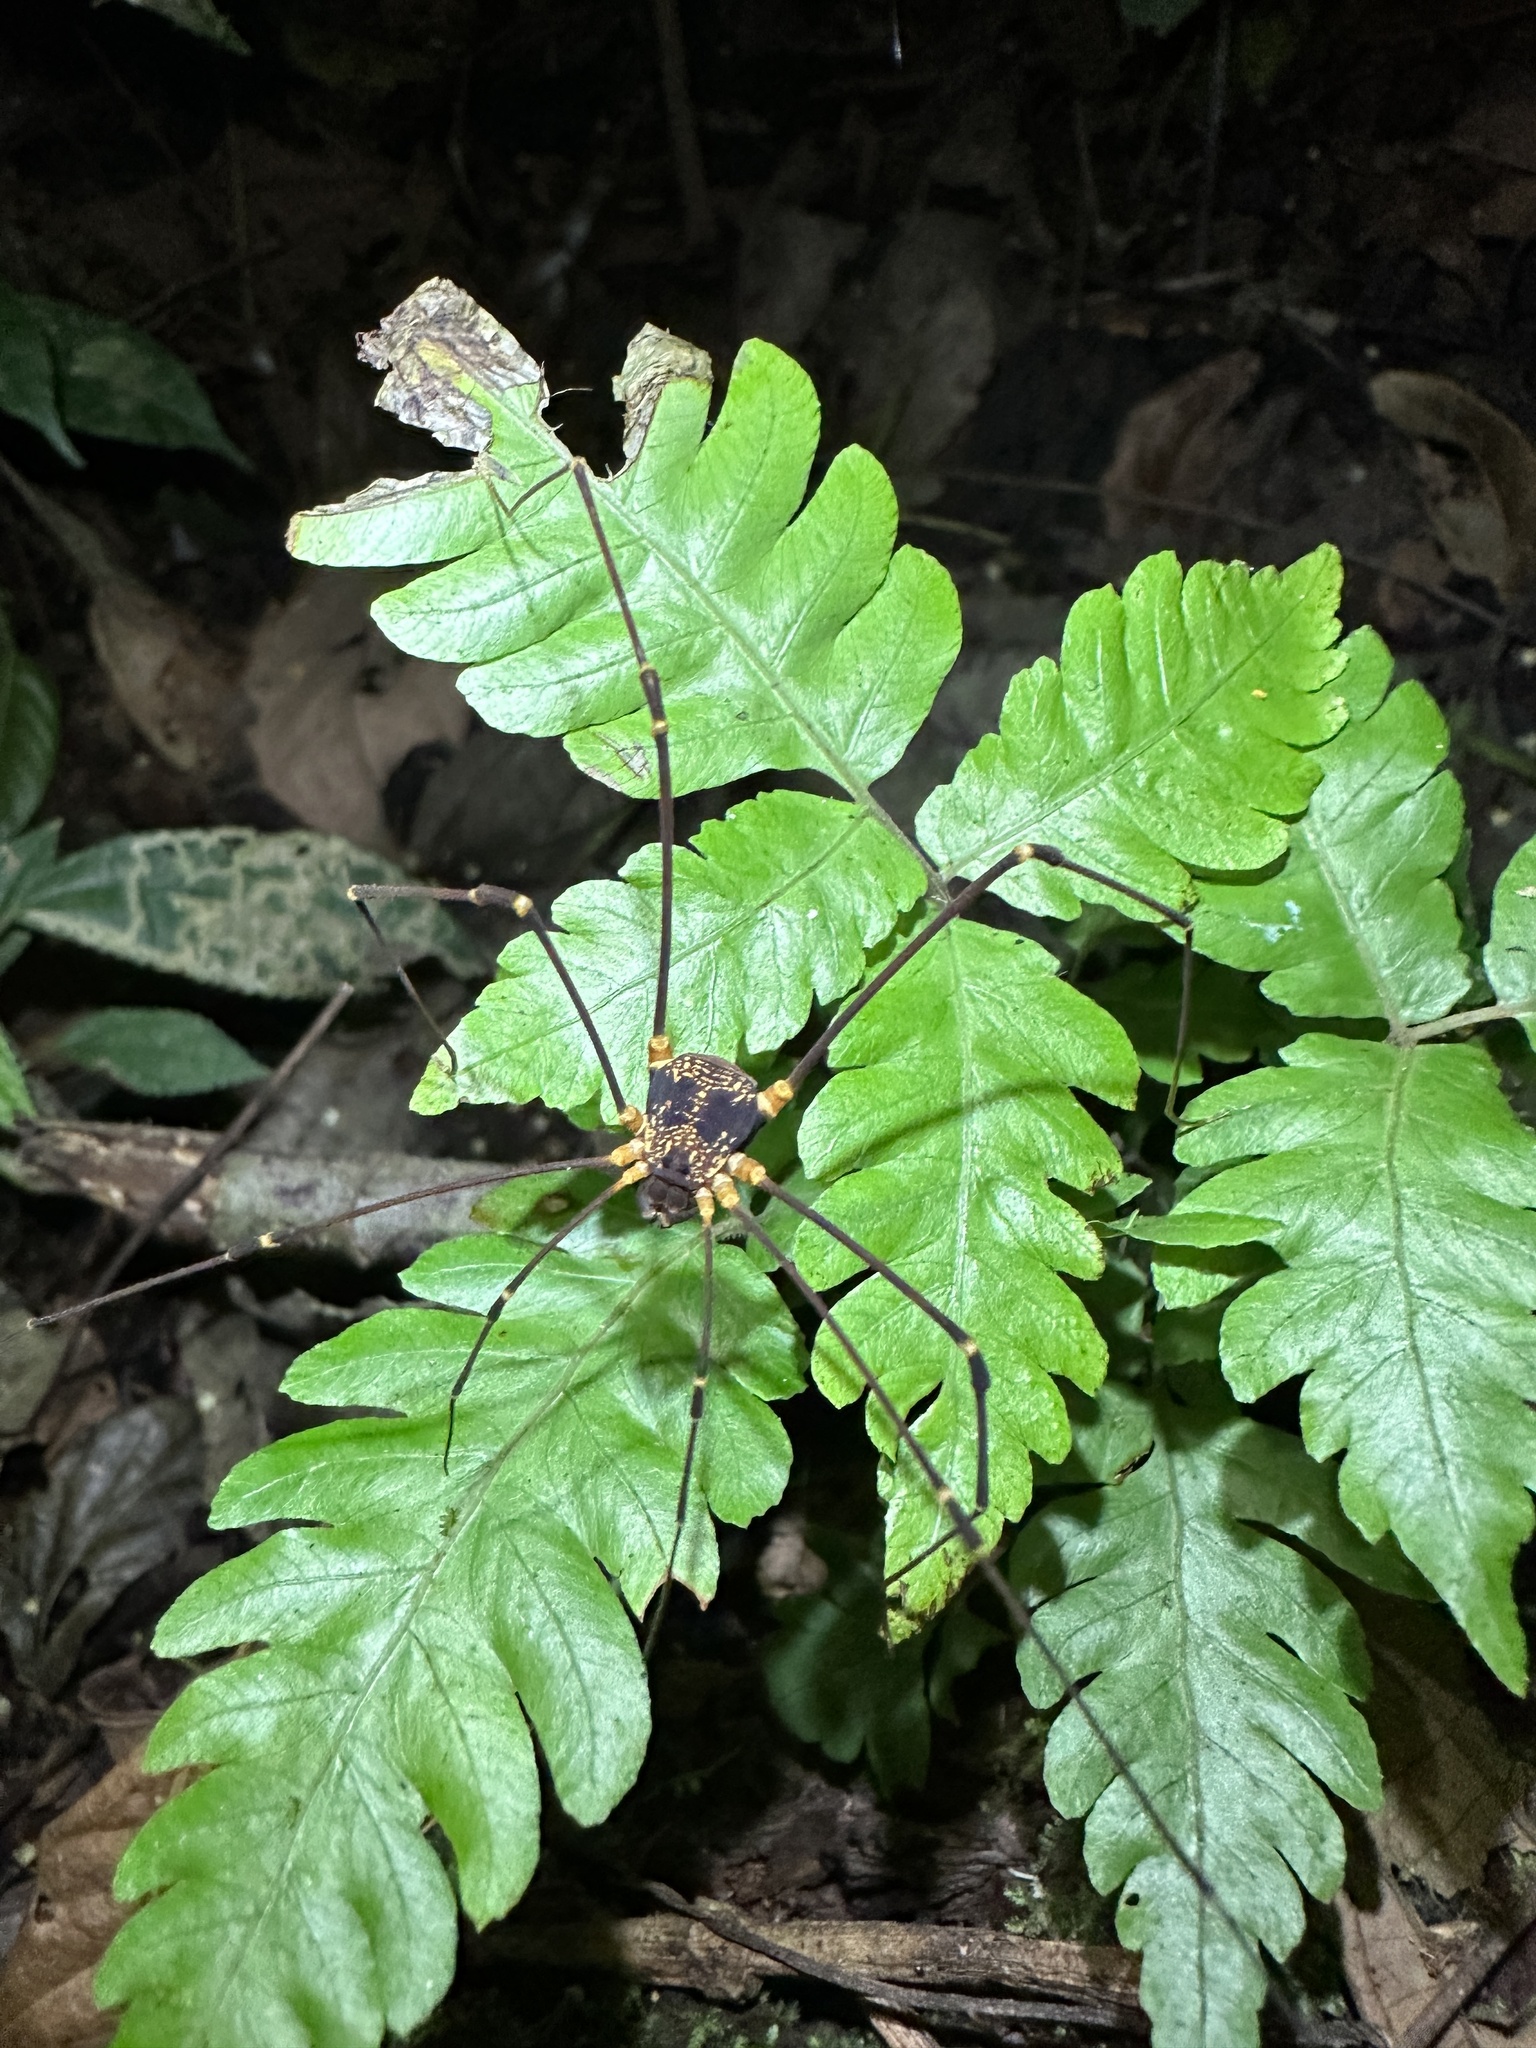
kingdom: Animalia
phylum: Arthropoda
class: Arachnida
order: Opiliones
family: Cosmetidae
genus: Eupoecilaema
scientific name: Eupoecilaema magnum
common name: Harvestmen
